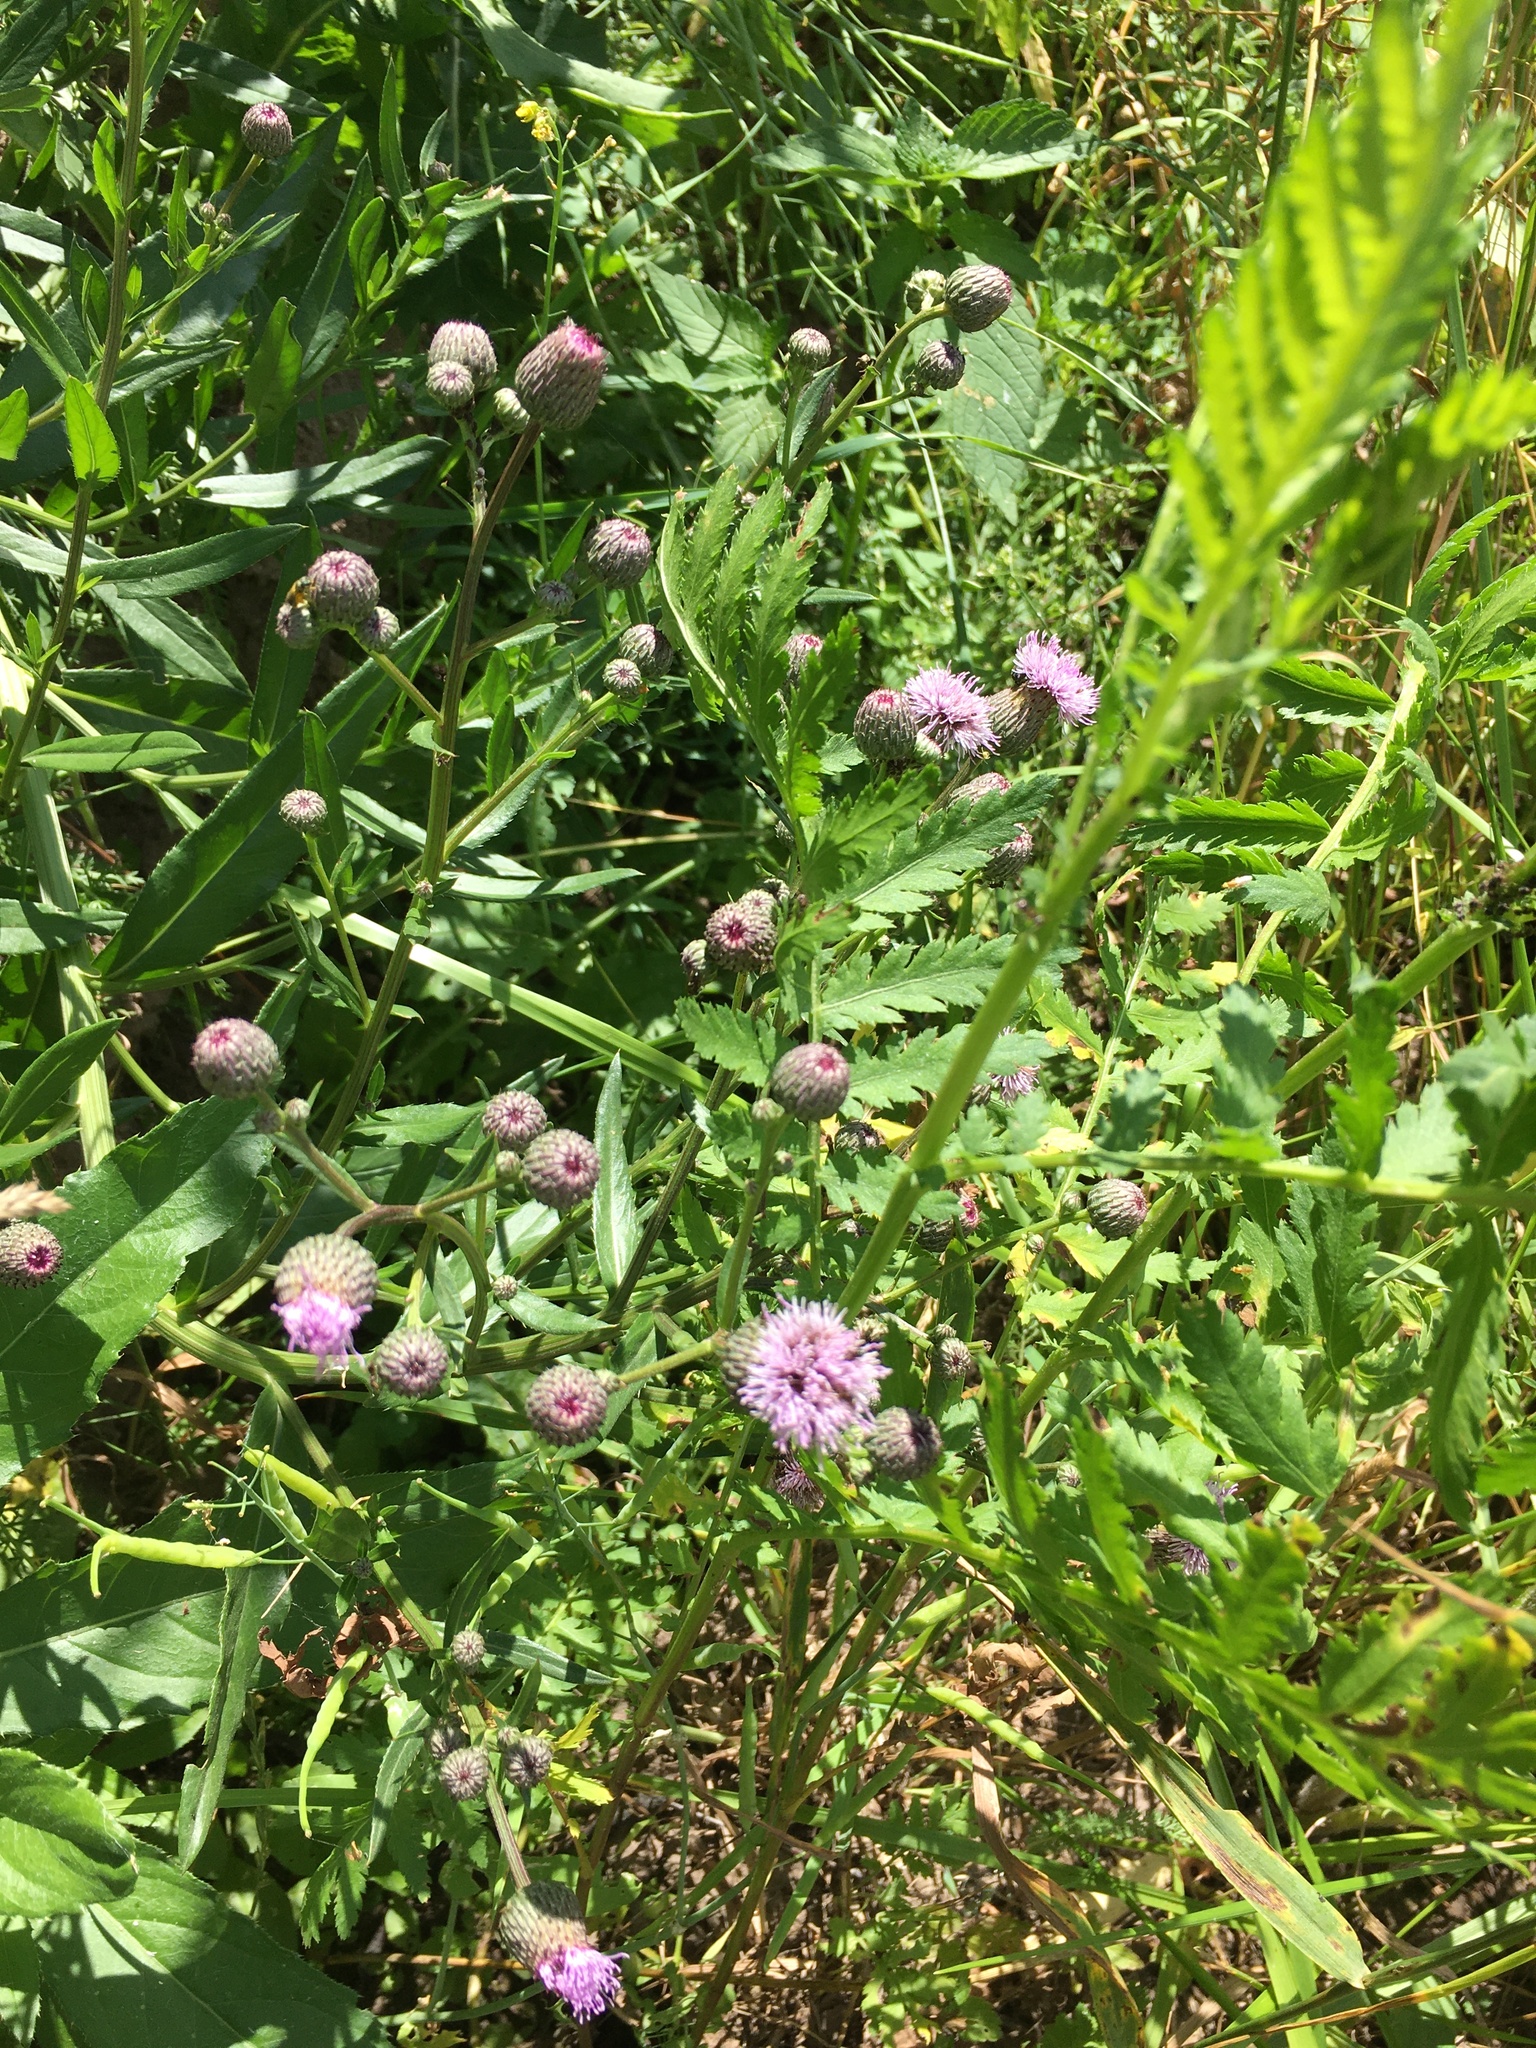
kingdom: Plantae
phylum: Tracheophyta
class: Magnoliopsida
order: Asterales
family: Asteraceae
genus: Cirsium
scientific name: Cirsium arvense
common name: Creeping thistle
